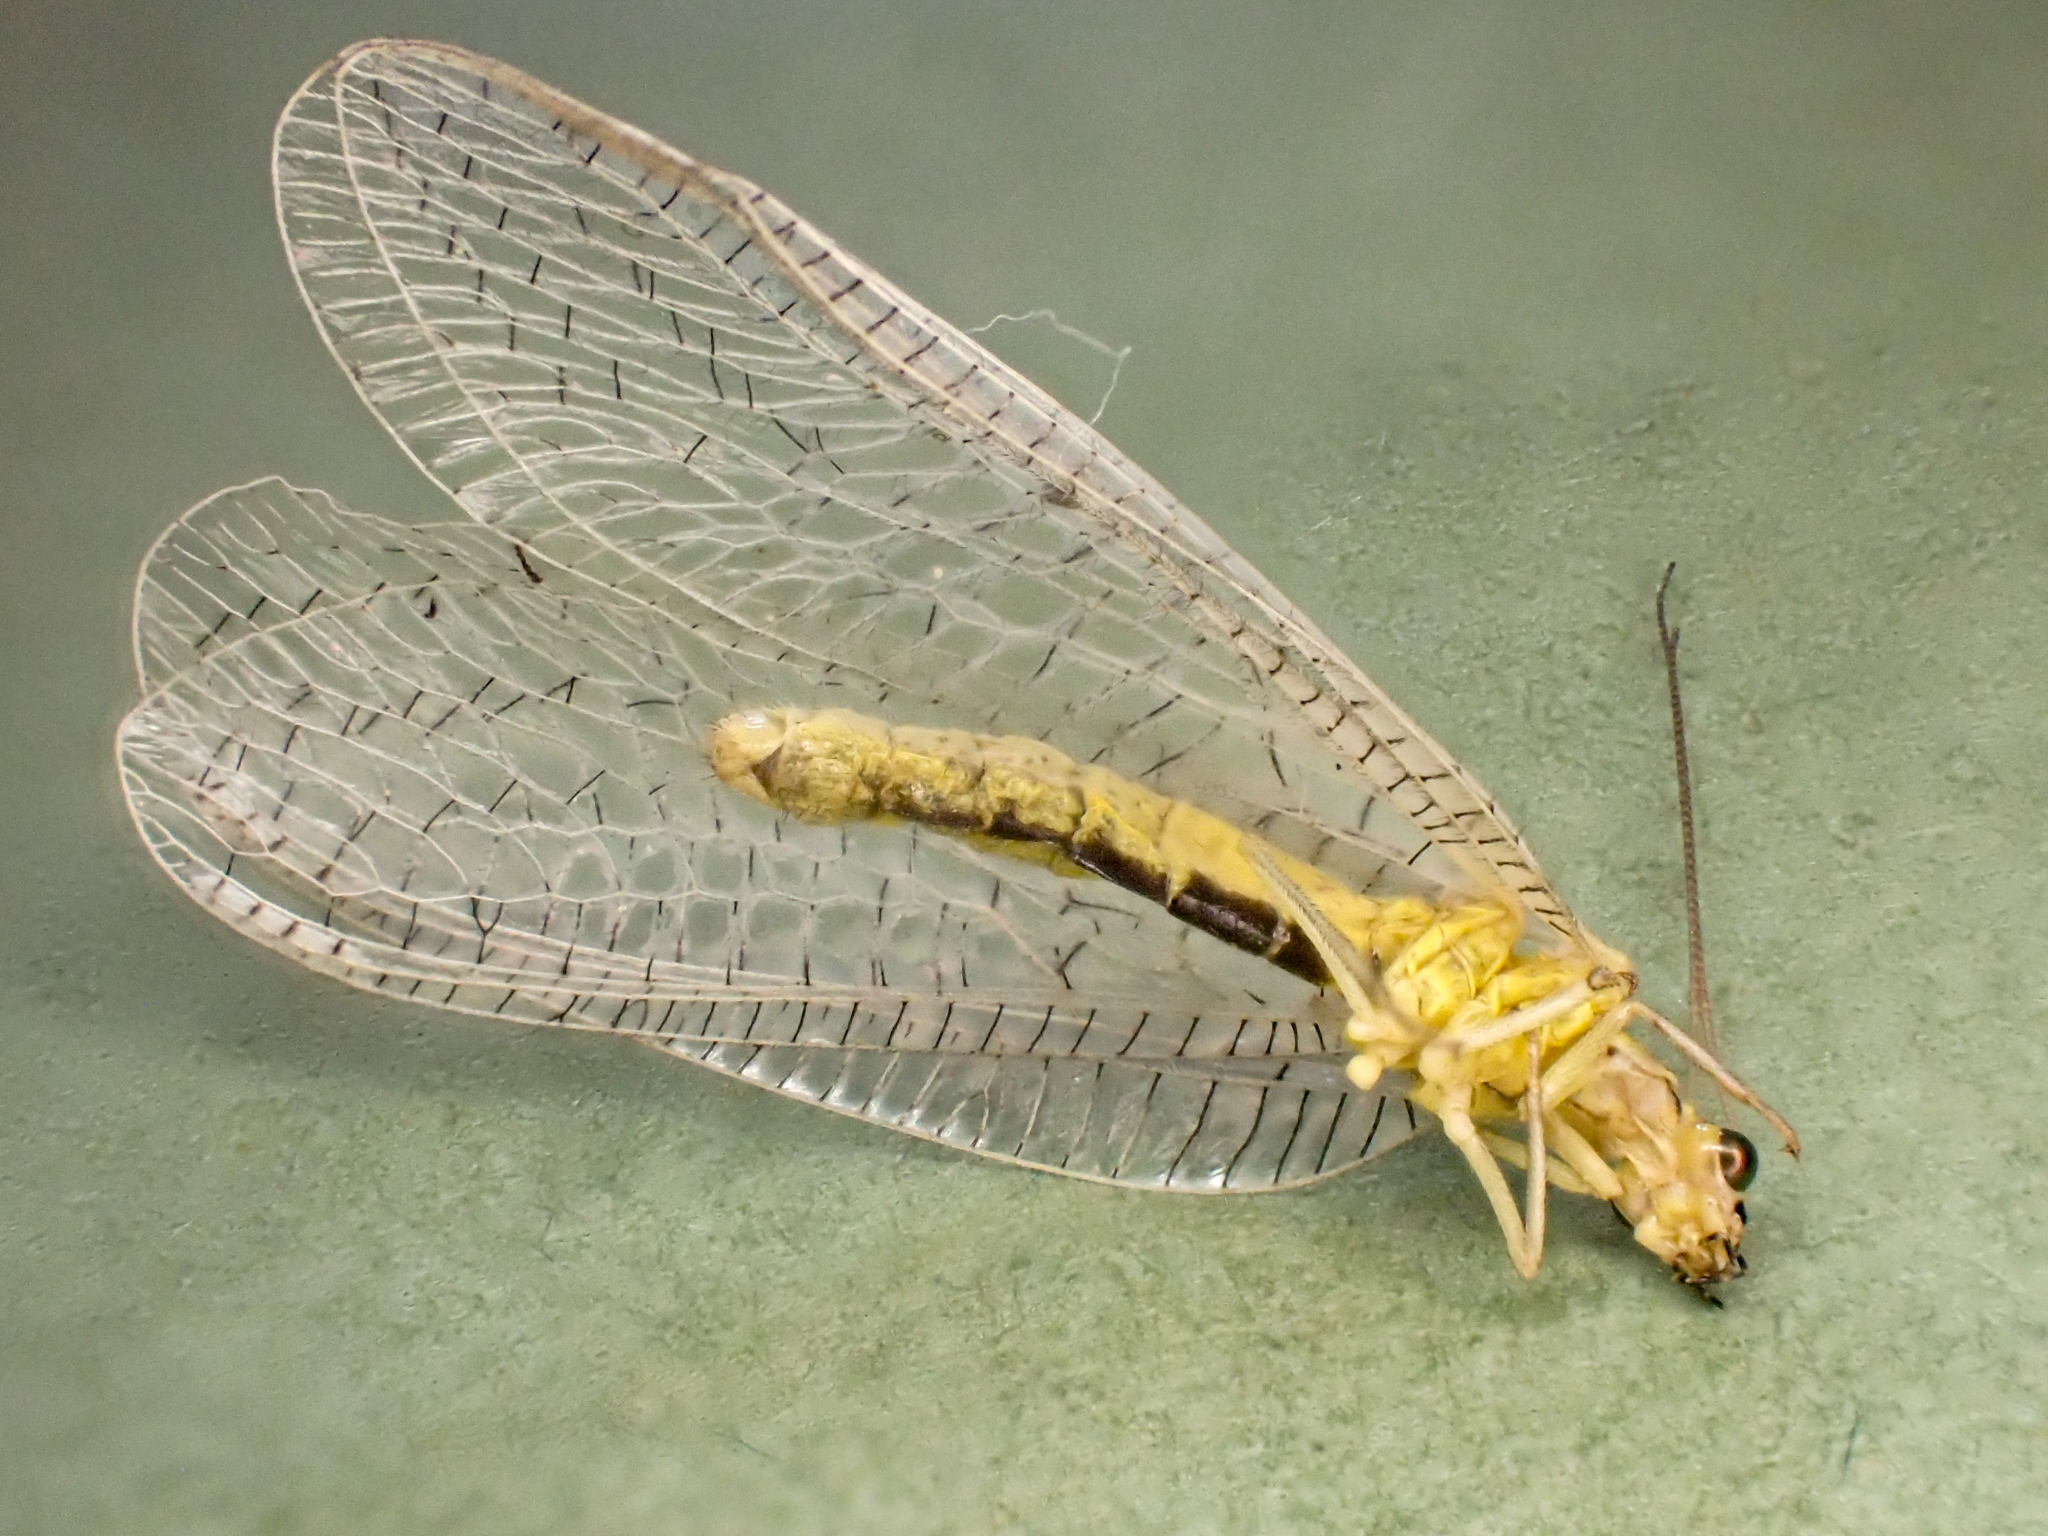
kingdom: Animalia
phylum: Arthropoda
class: Insecta
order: Neuroptera
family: Chrysopidae
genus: Chrysopa
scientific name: Chrysopa chi
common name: X-marked green lacewing
